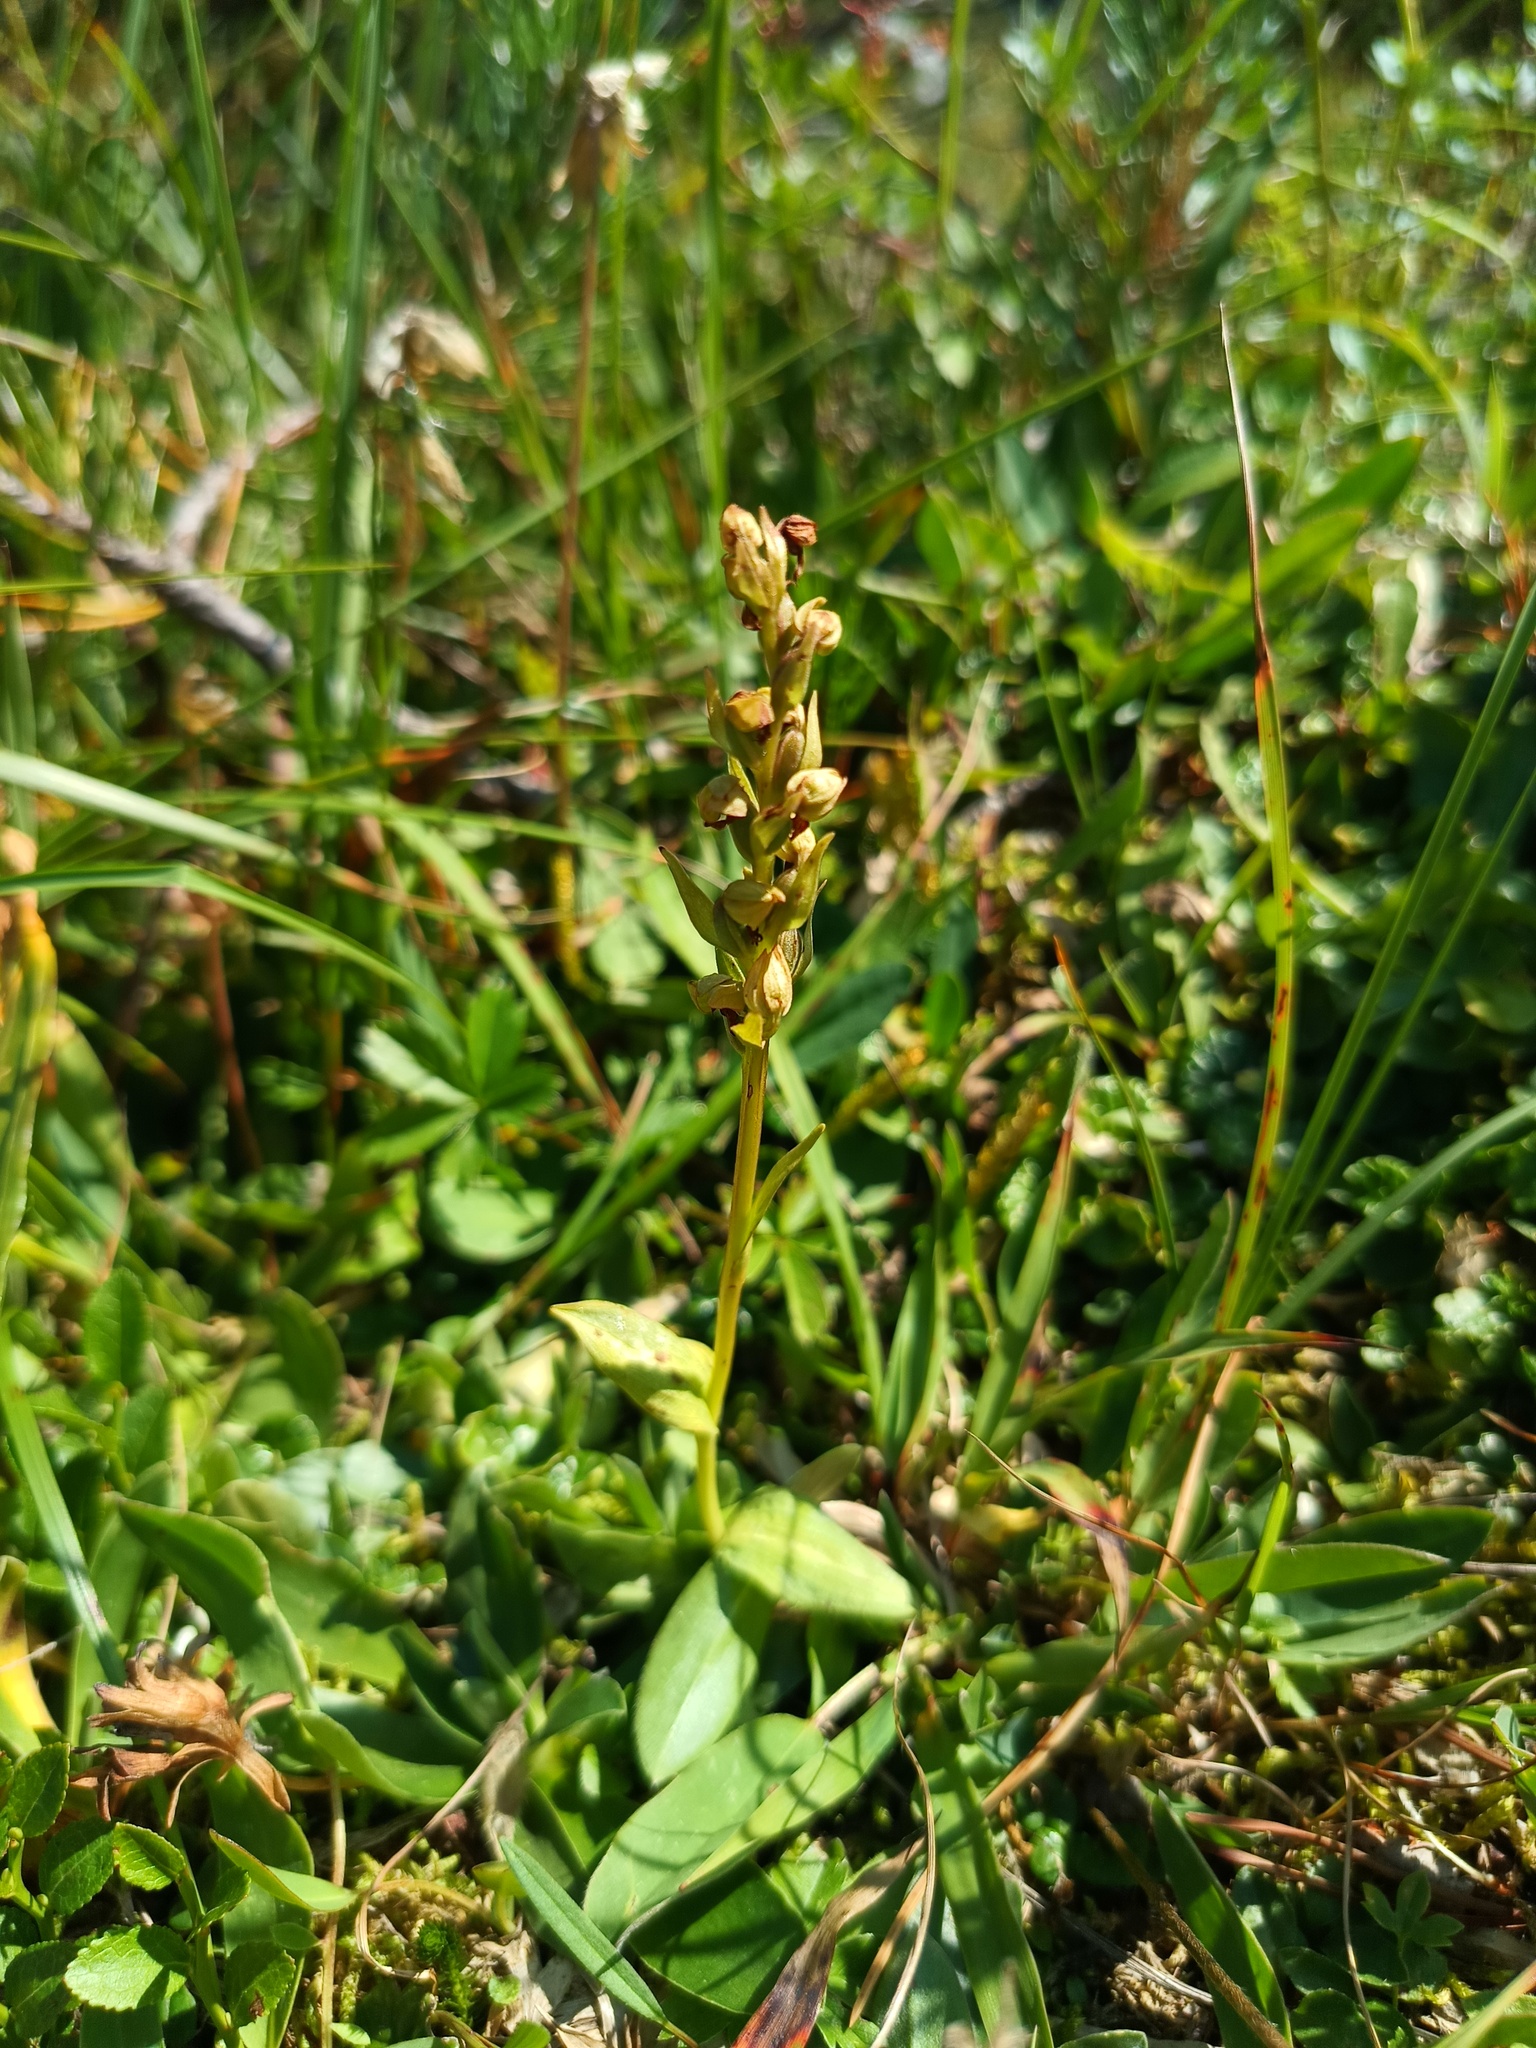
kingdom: Plantae
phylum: Tracheophyta
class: Liliopsida
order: Asparagales
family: Orchidaceae
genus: Dactylorhiza
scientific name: Dactylorhiza viridis
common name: Longbract frog orchid
